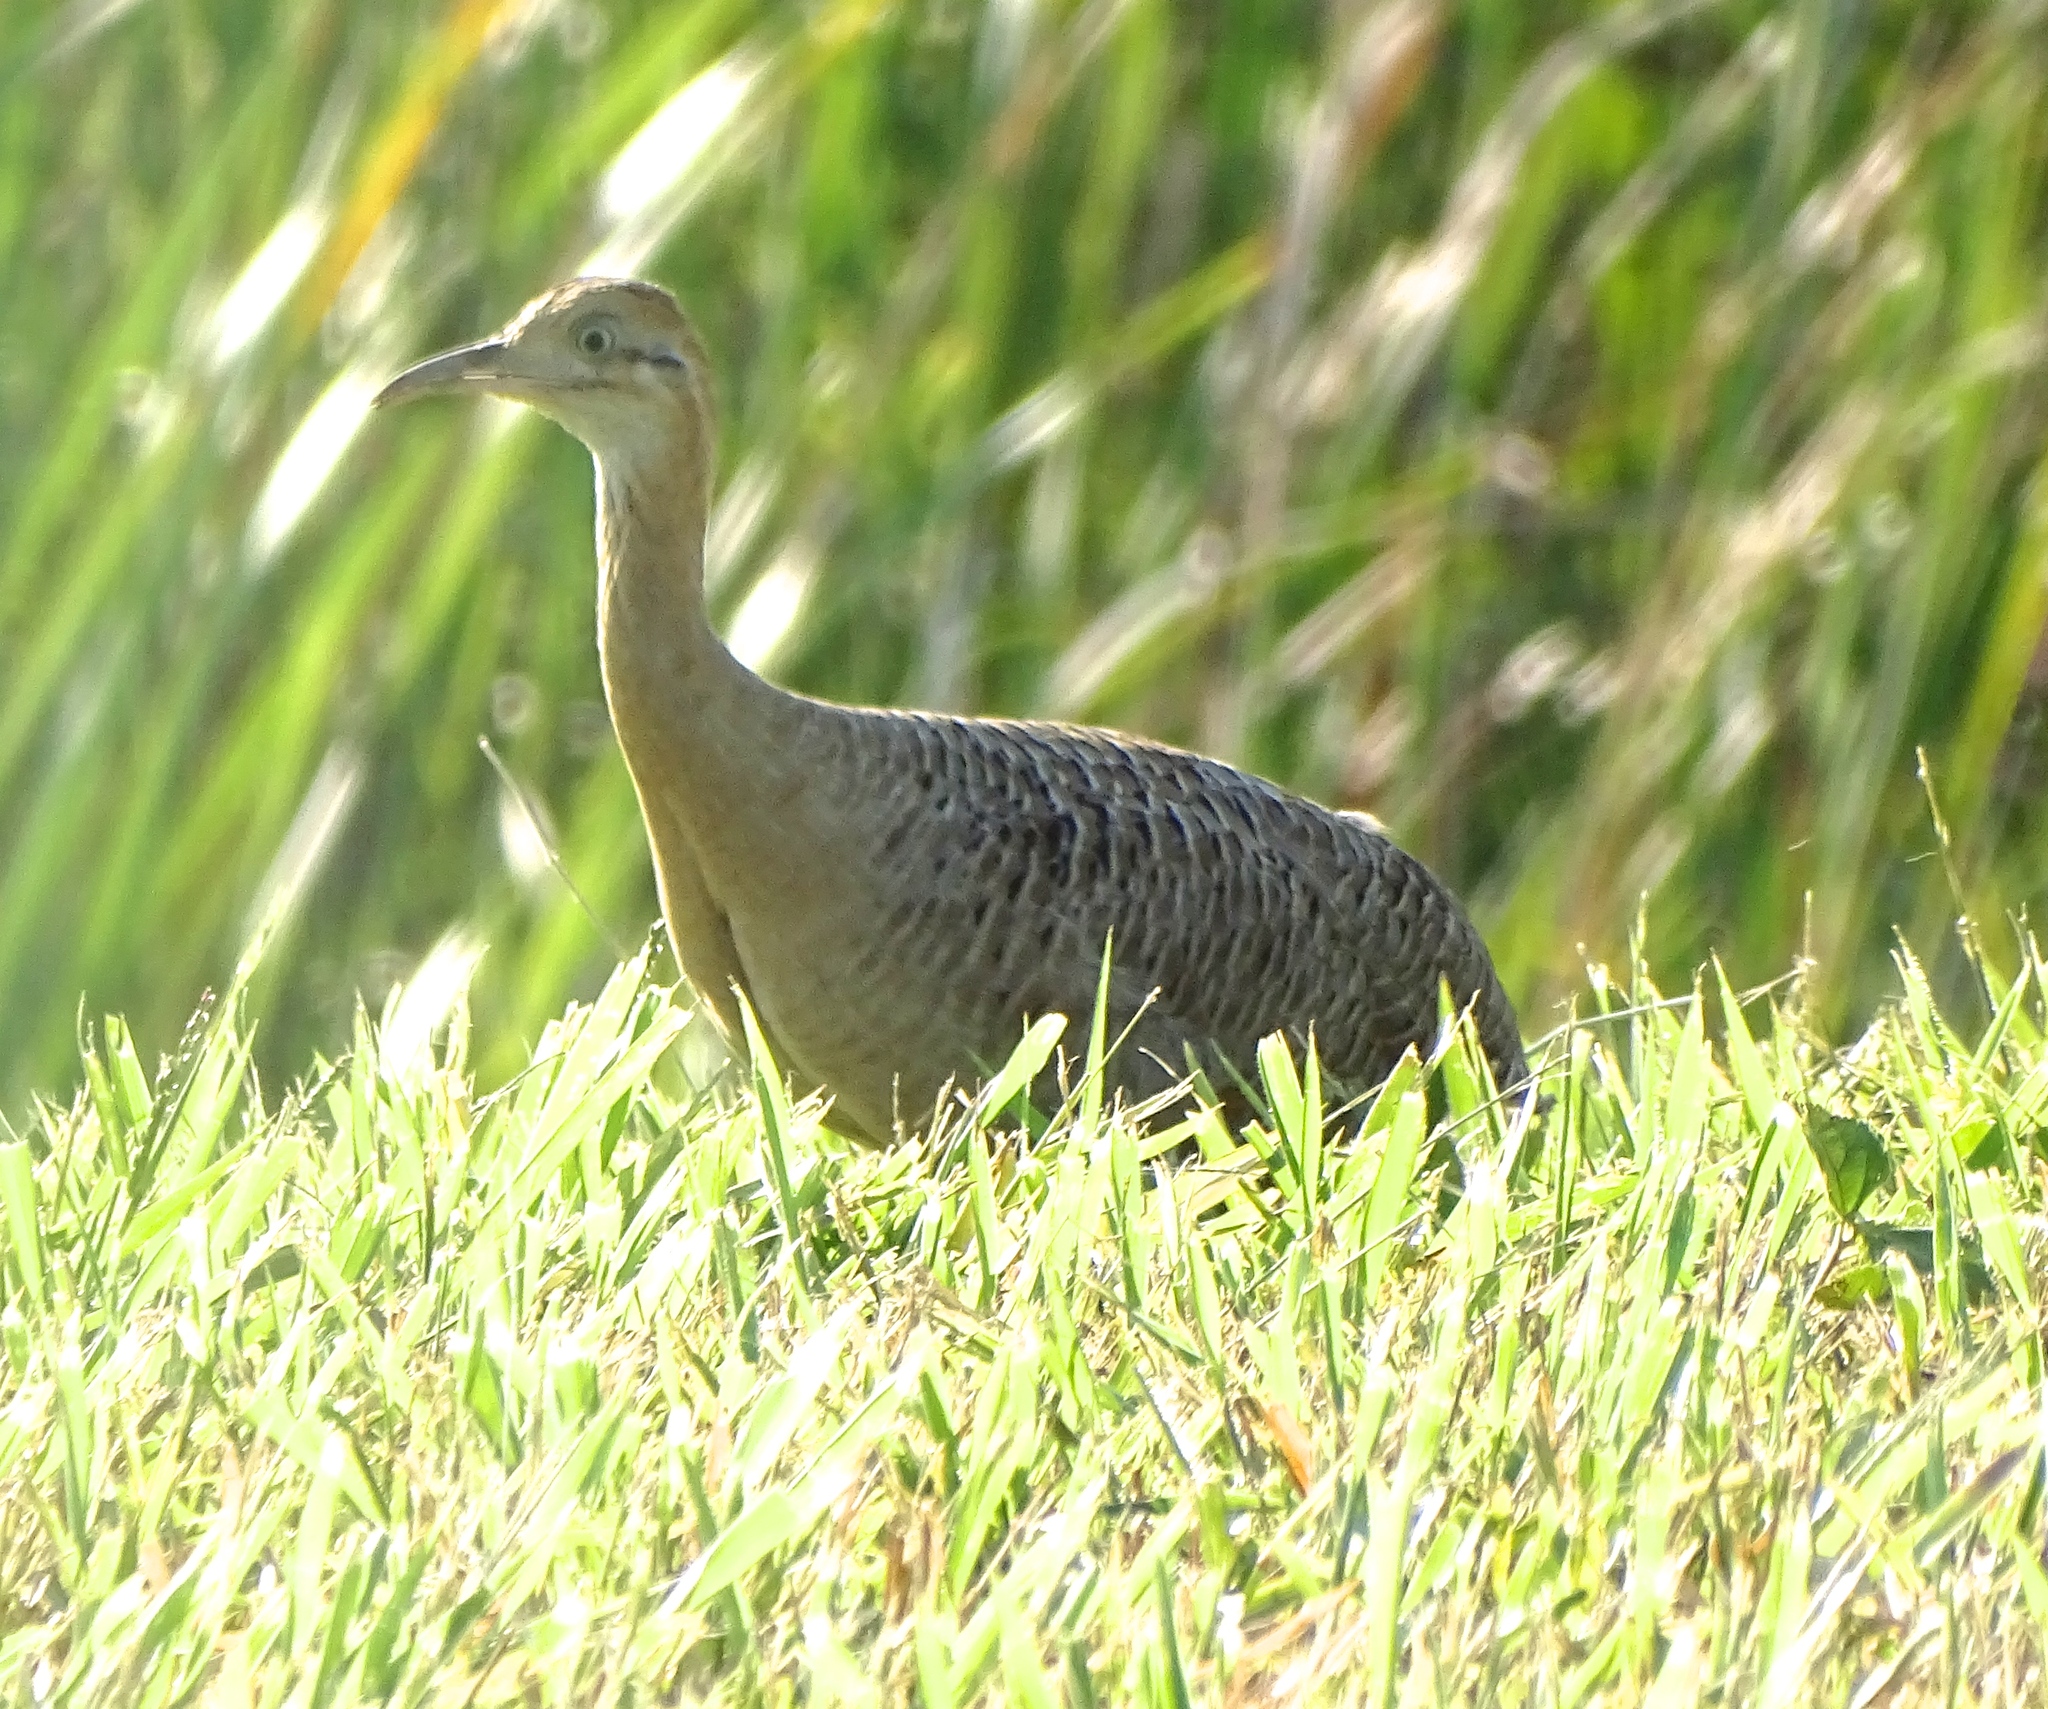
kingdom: Animalia
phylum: Chordata
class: Aves
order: Tinamiformes
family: Tinamidae
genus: Rhynchotus
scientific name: Rhynchotus rufescens
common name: Red-winged tinamou
